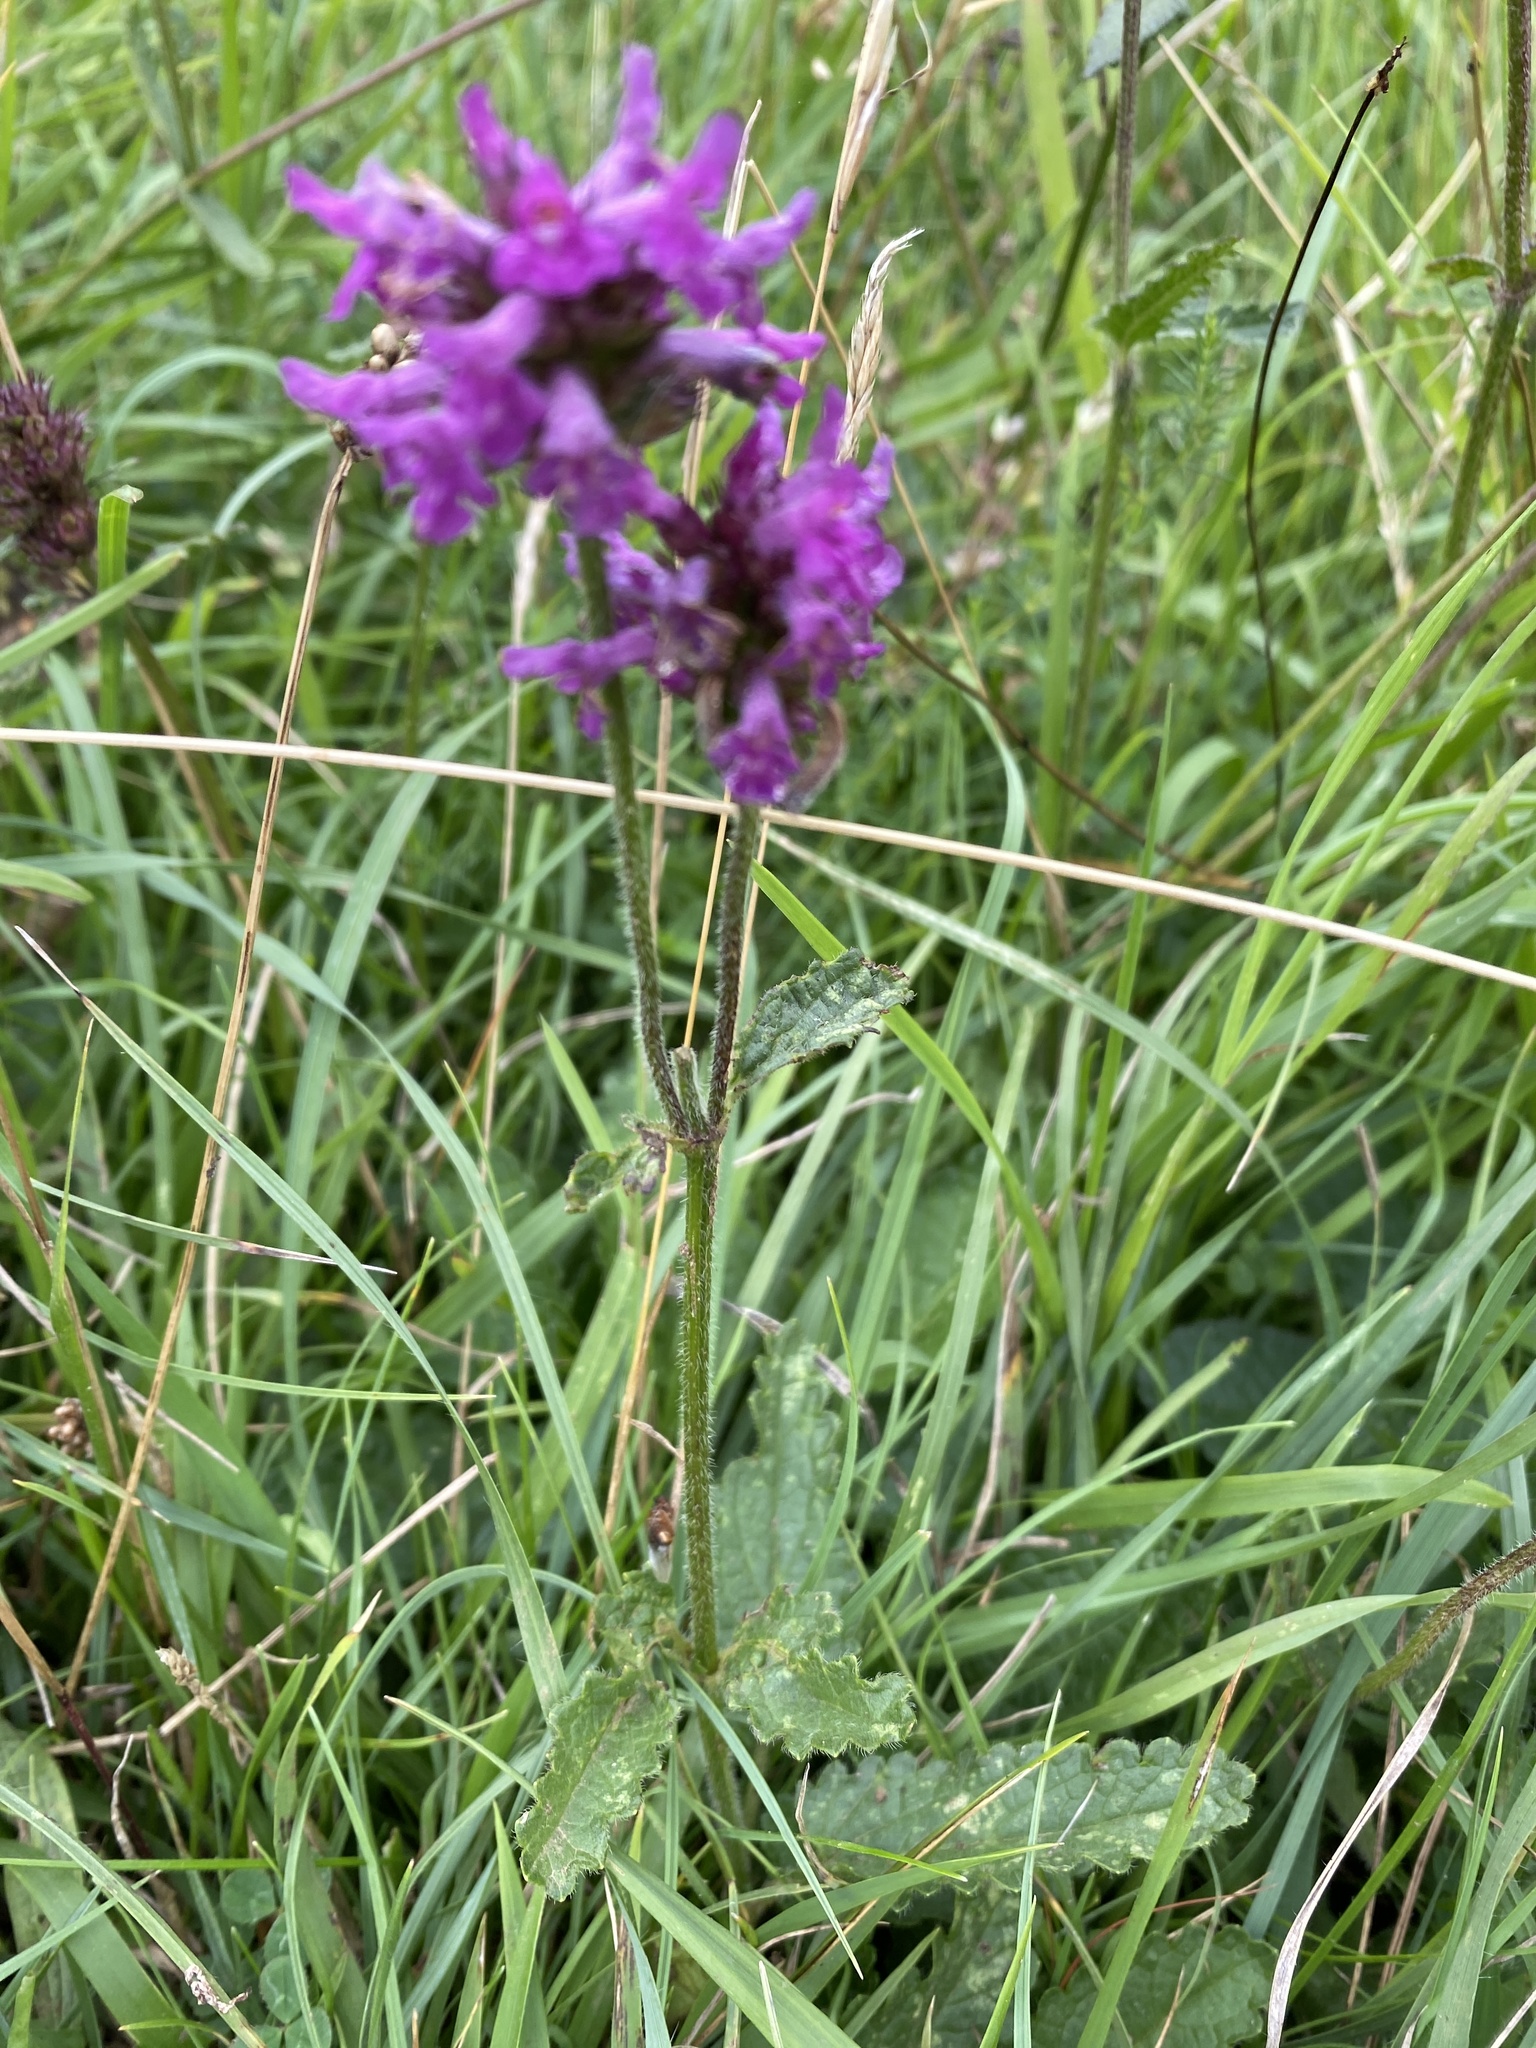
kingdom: Plantae
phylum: Tracheophyta
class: Magnoliopsida
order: Lamiales
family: Lamiaceae
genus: Betonica
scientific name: Betonica officinalis
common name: Bishop's-wort
